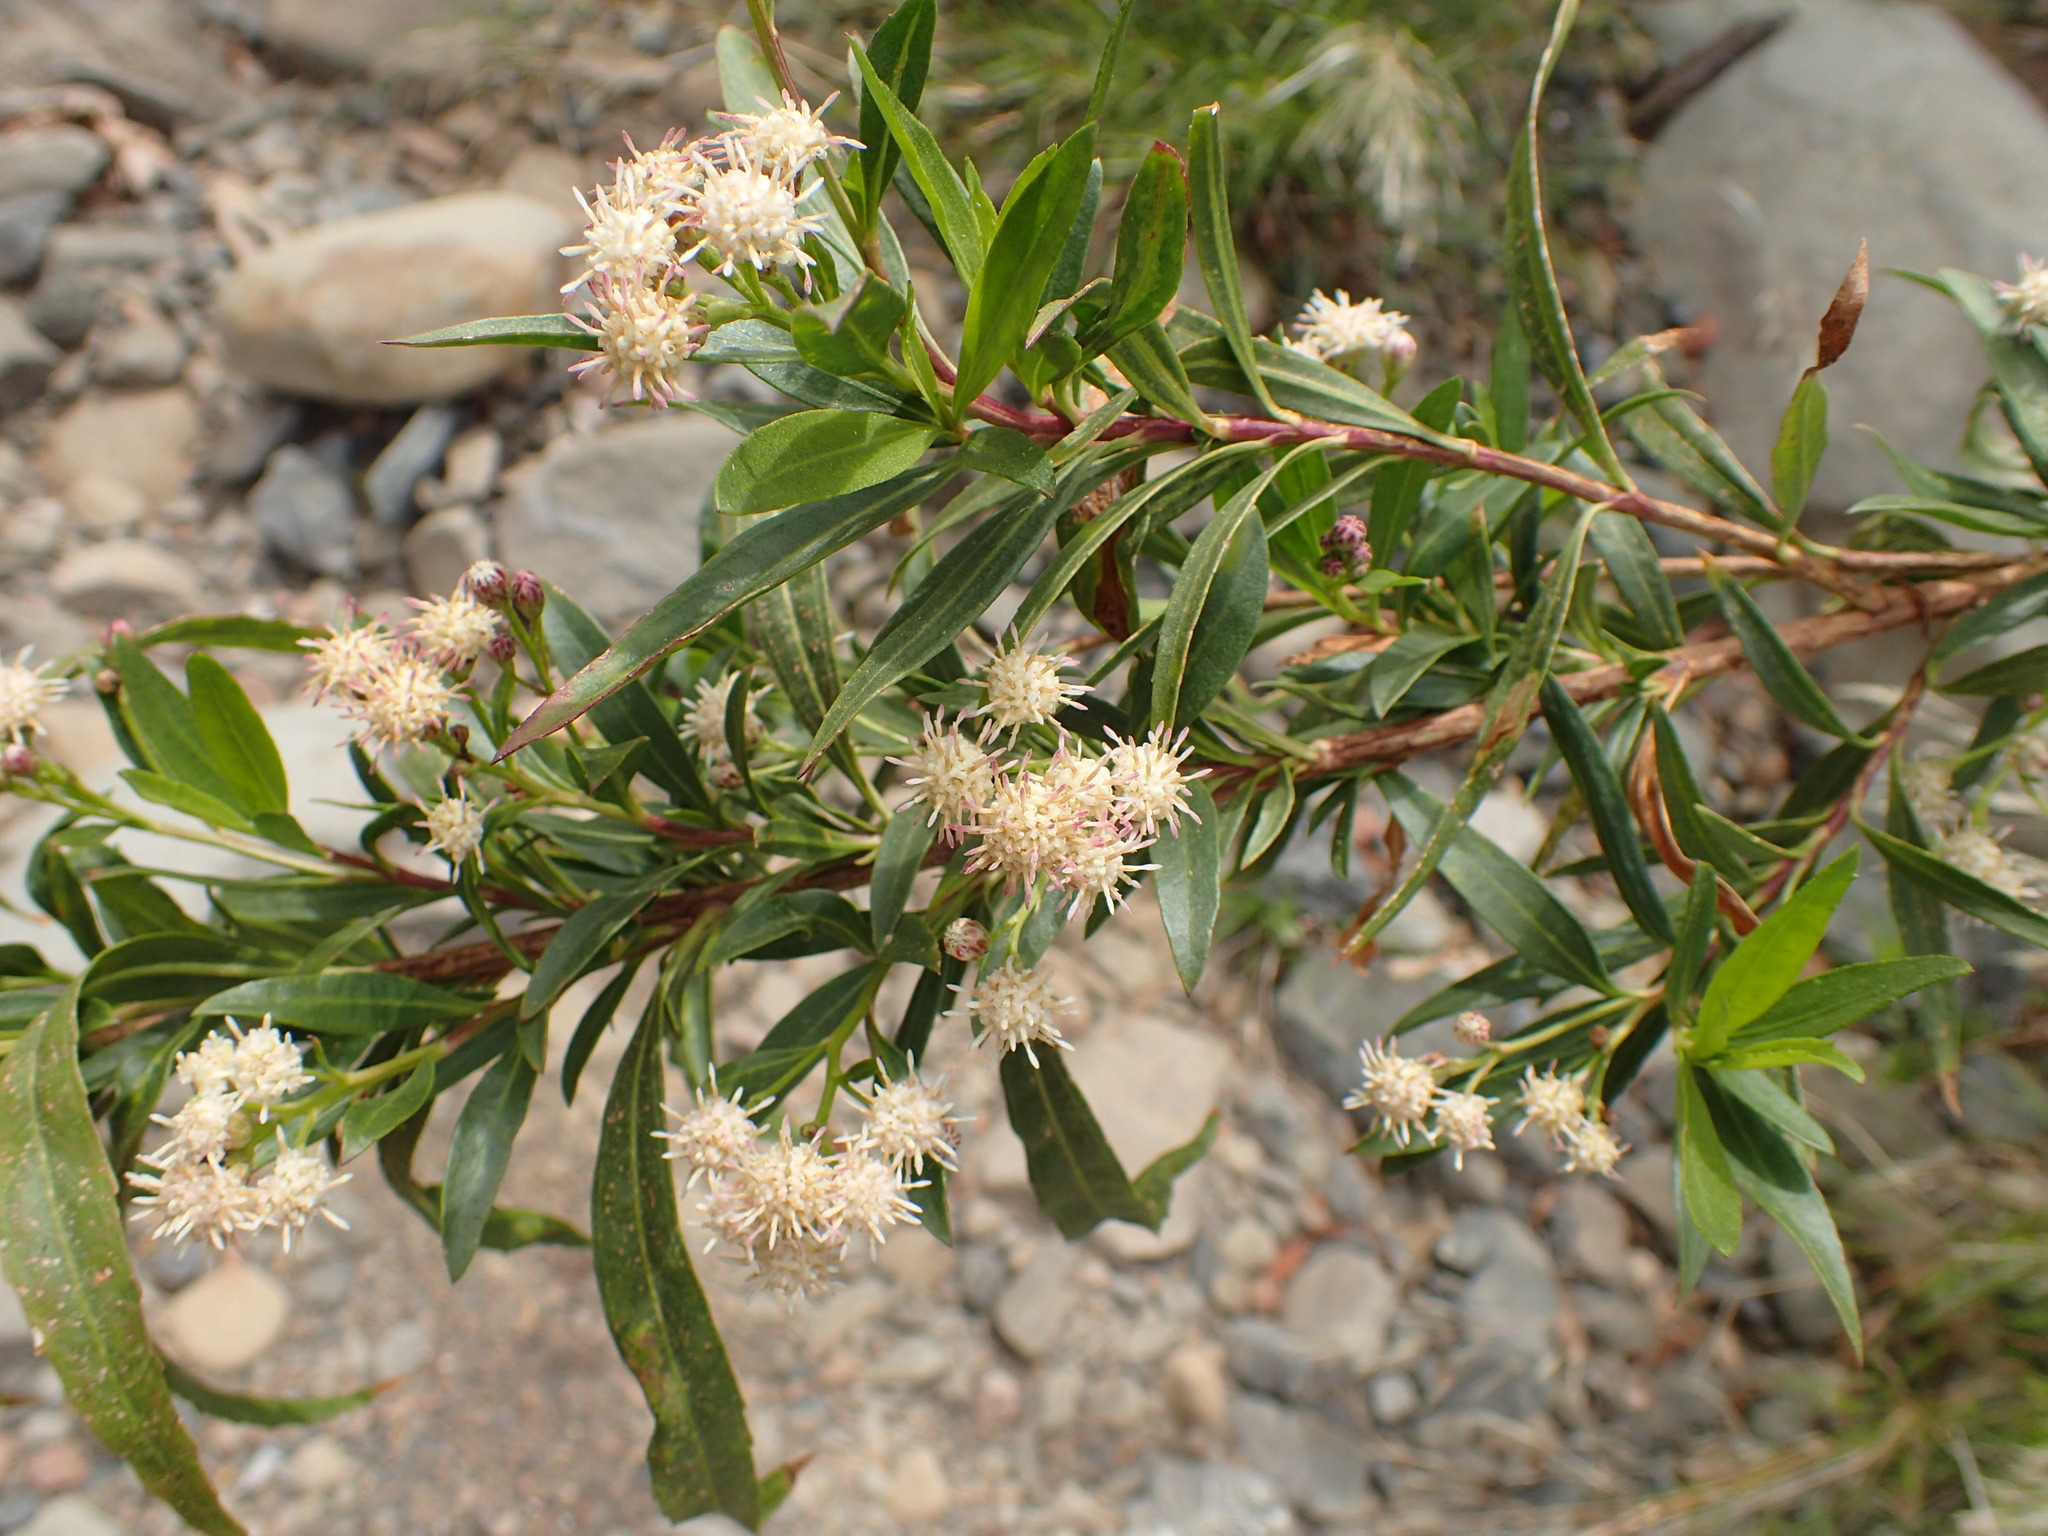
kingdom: Plantae
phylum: Tracheophyta
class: Magnoliopsida
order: Asterales
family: Asteraceae
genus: Baccharis
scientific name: Baccharis salicifolia
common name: Sticky baccharis
